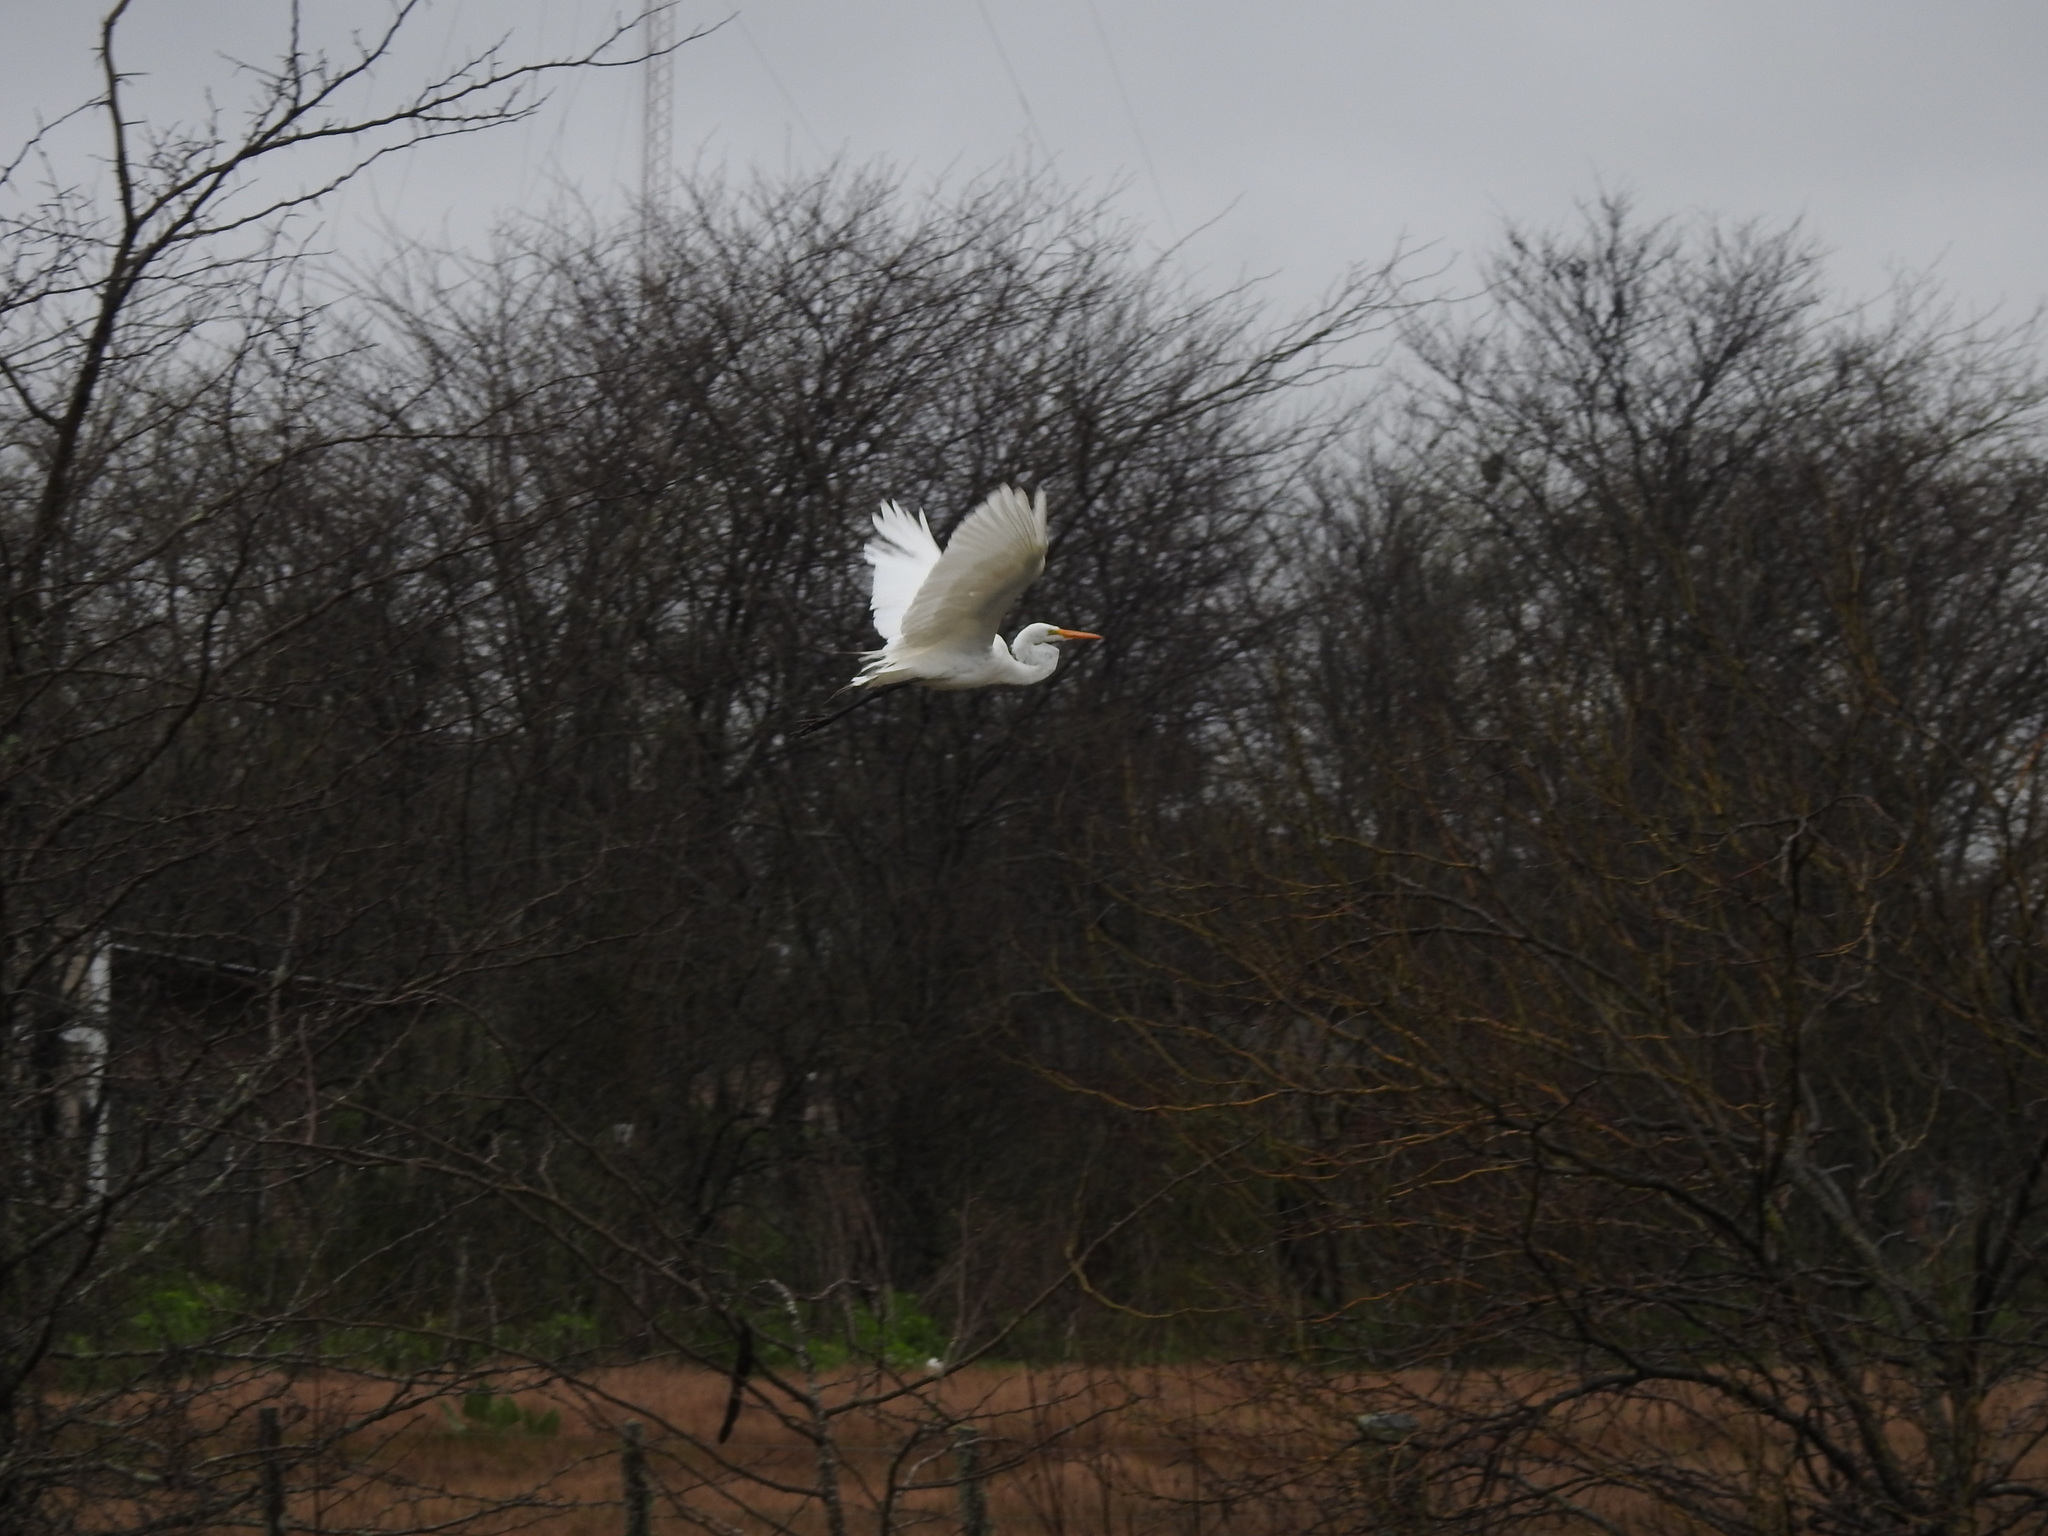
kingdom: Animalia
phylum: Chordata
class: Aves
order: Pelecaniformes
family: Ardeidae
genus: Ardea
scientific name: Ardea alba
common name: Great egret
